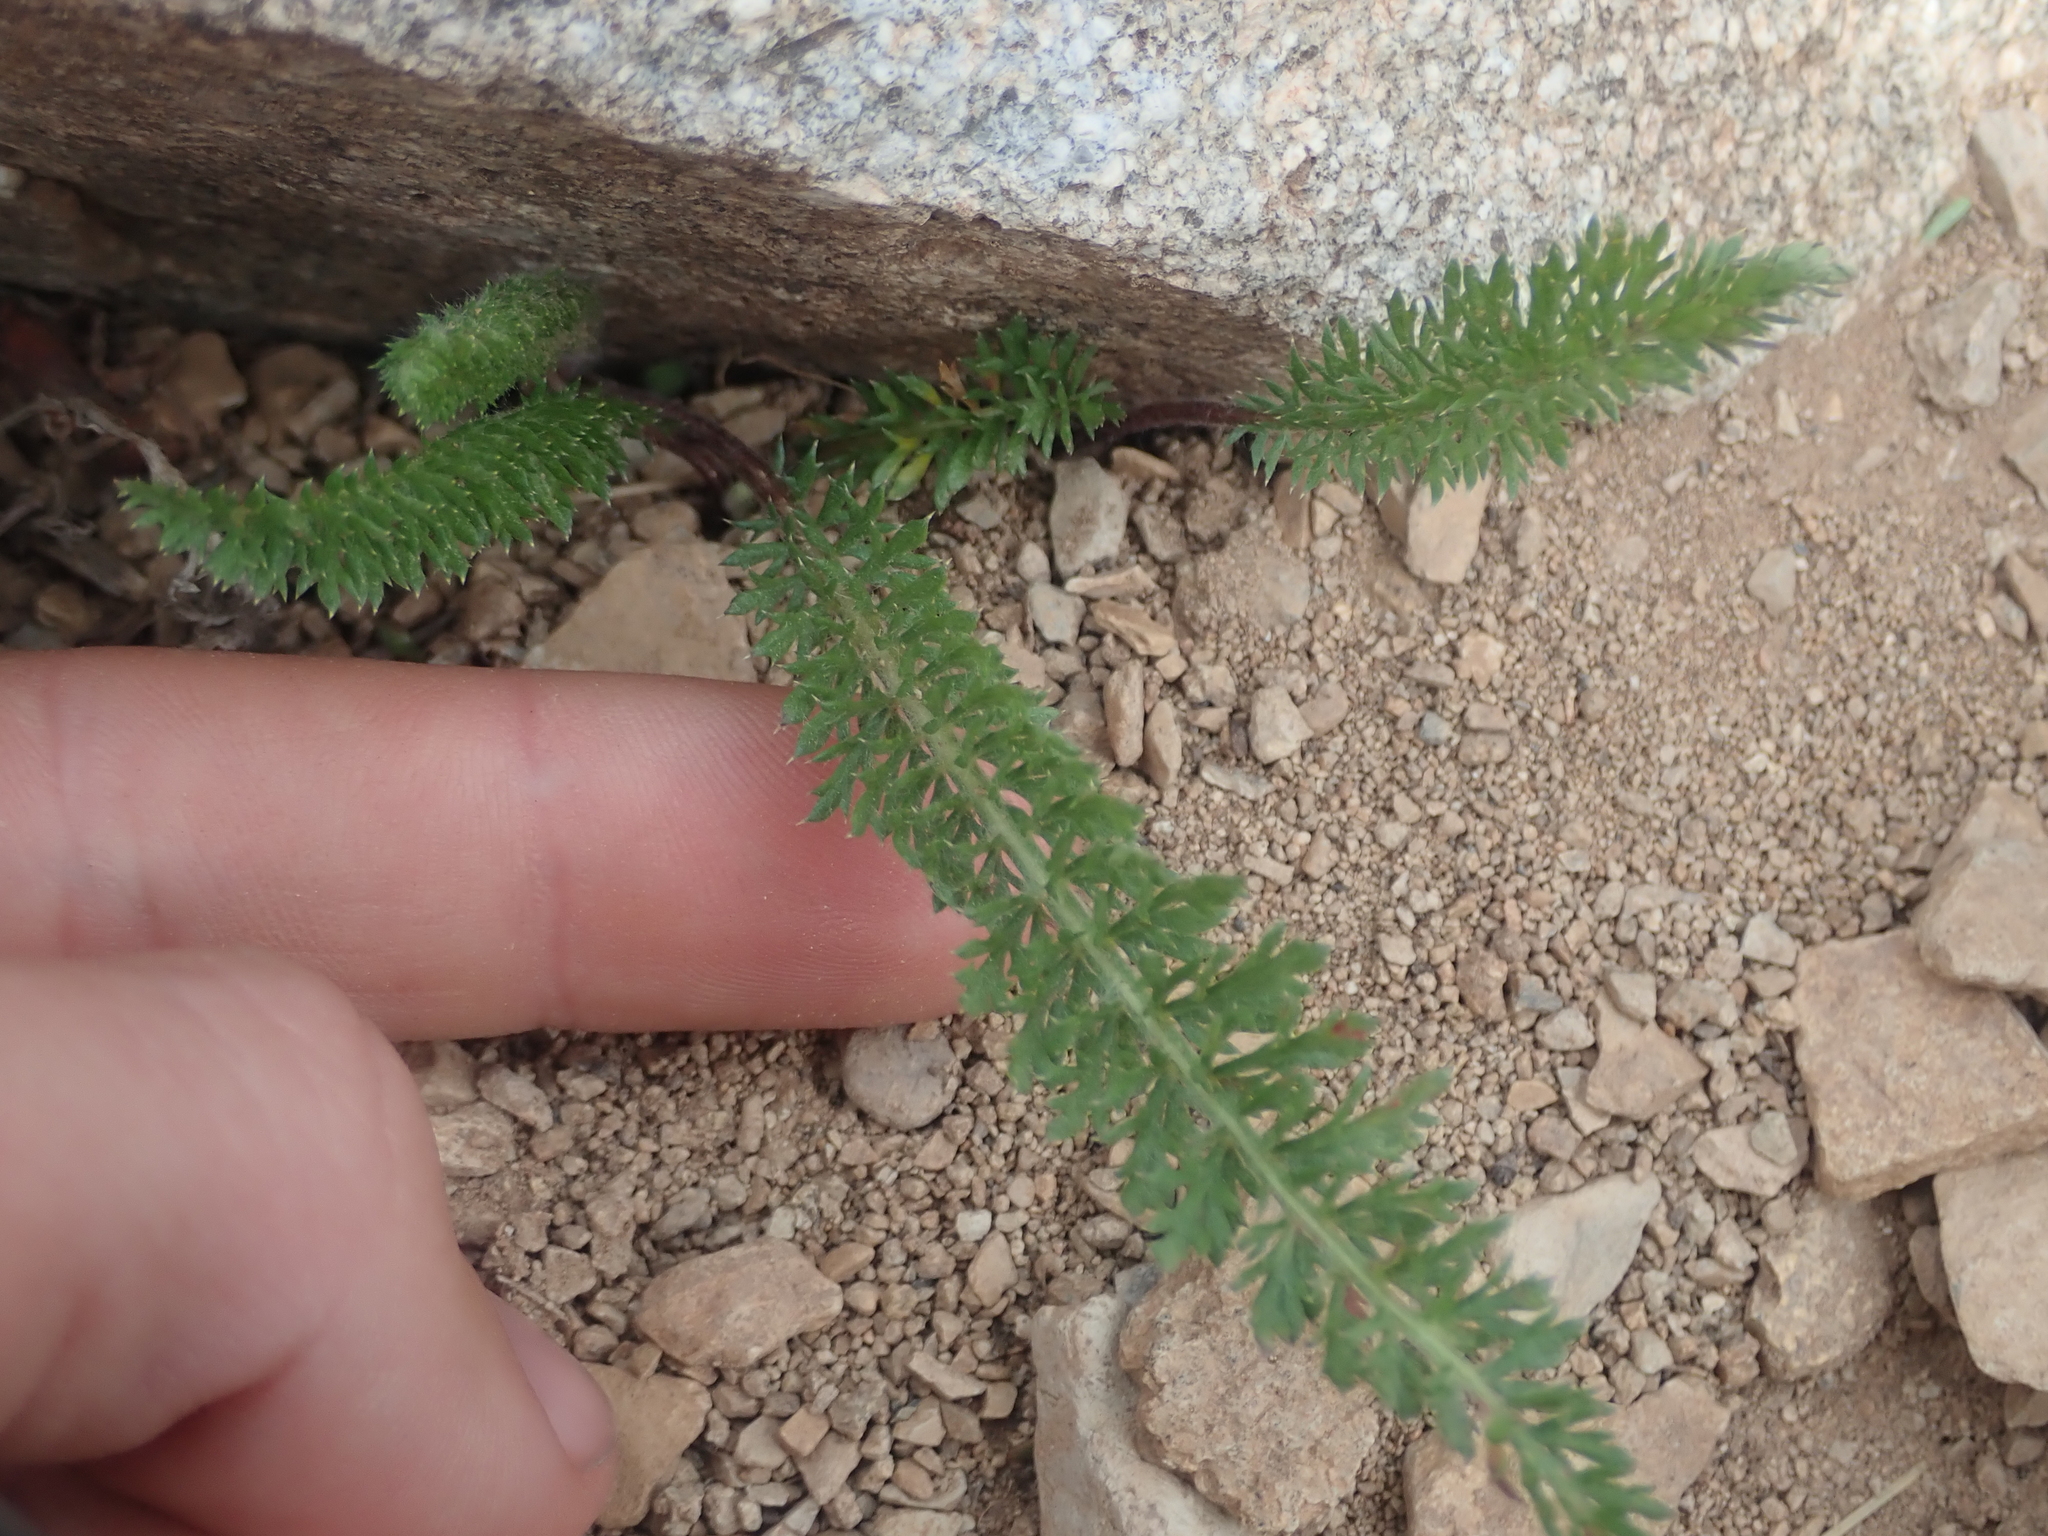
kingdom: Plantae
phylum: Tracheophyta
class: Magnoliopsida
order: Asterales
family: Asteraceae
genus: Achillea
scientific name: Achillea millefolium
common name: Yarrow
